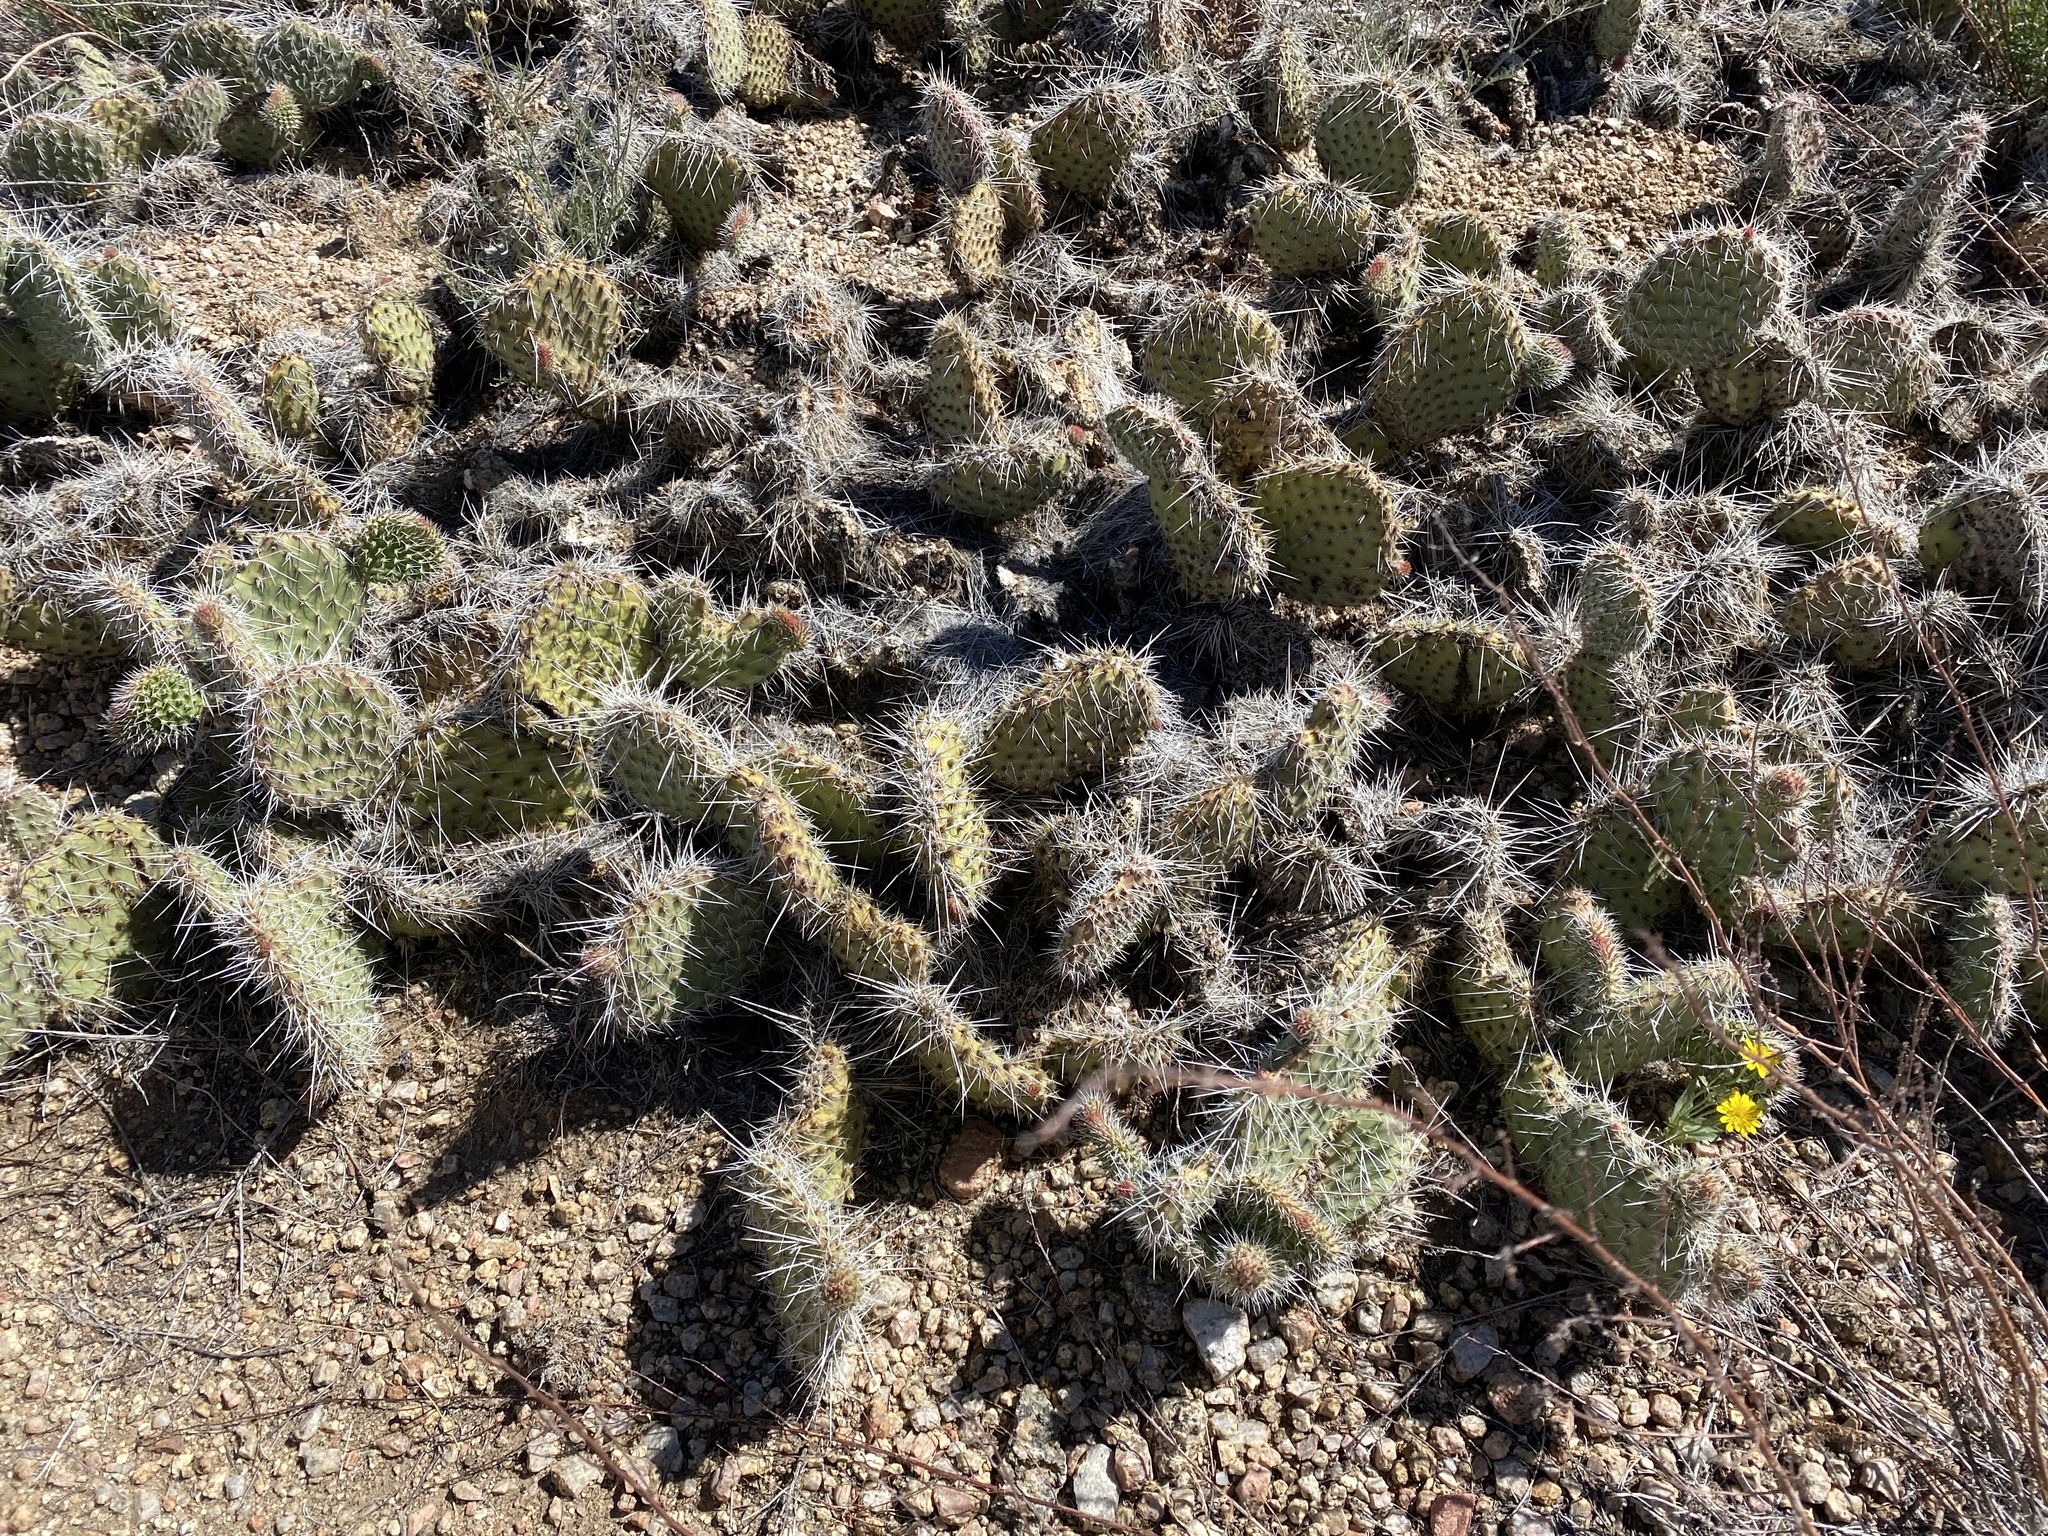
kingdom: Plantae
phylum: Tracheophyta
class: Magnoliopsida
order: Caryophyllales
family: Cactaceae
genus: Opuntia
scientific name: Opuntia polyacantha
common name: Plains prickly-pear
